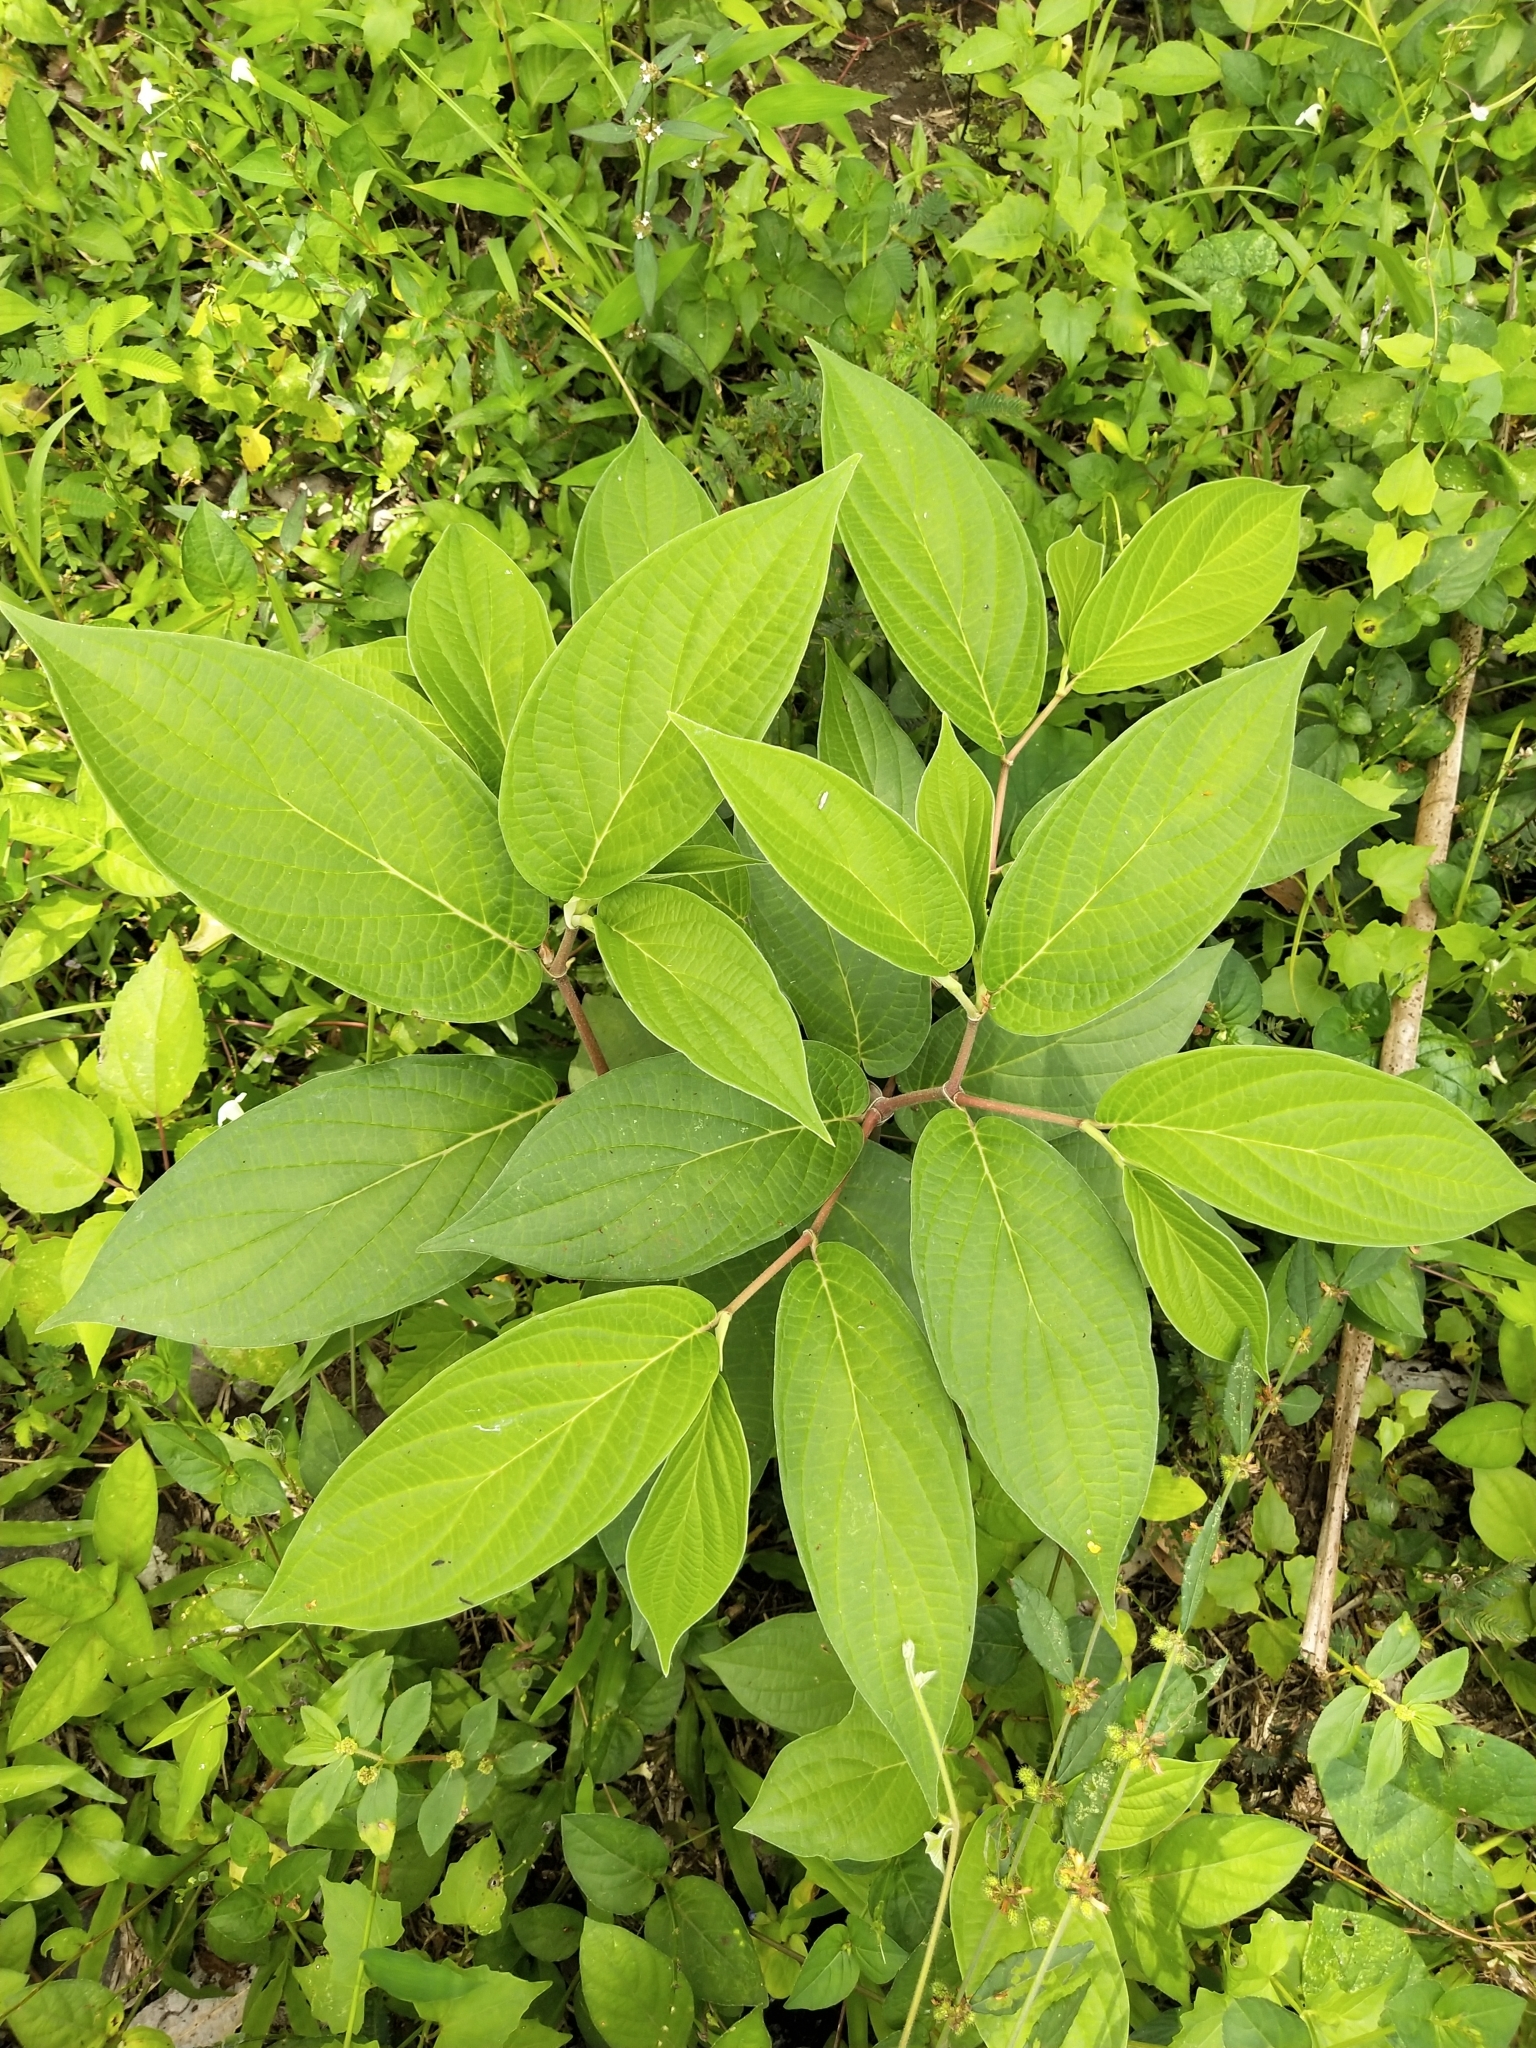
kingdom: Plantae
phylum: Tracheophyta
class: Magnoliopsida
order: Piperales
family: Piperaceae
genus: Piper
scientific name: Piper aduncum
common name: Spiked pepper
